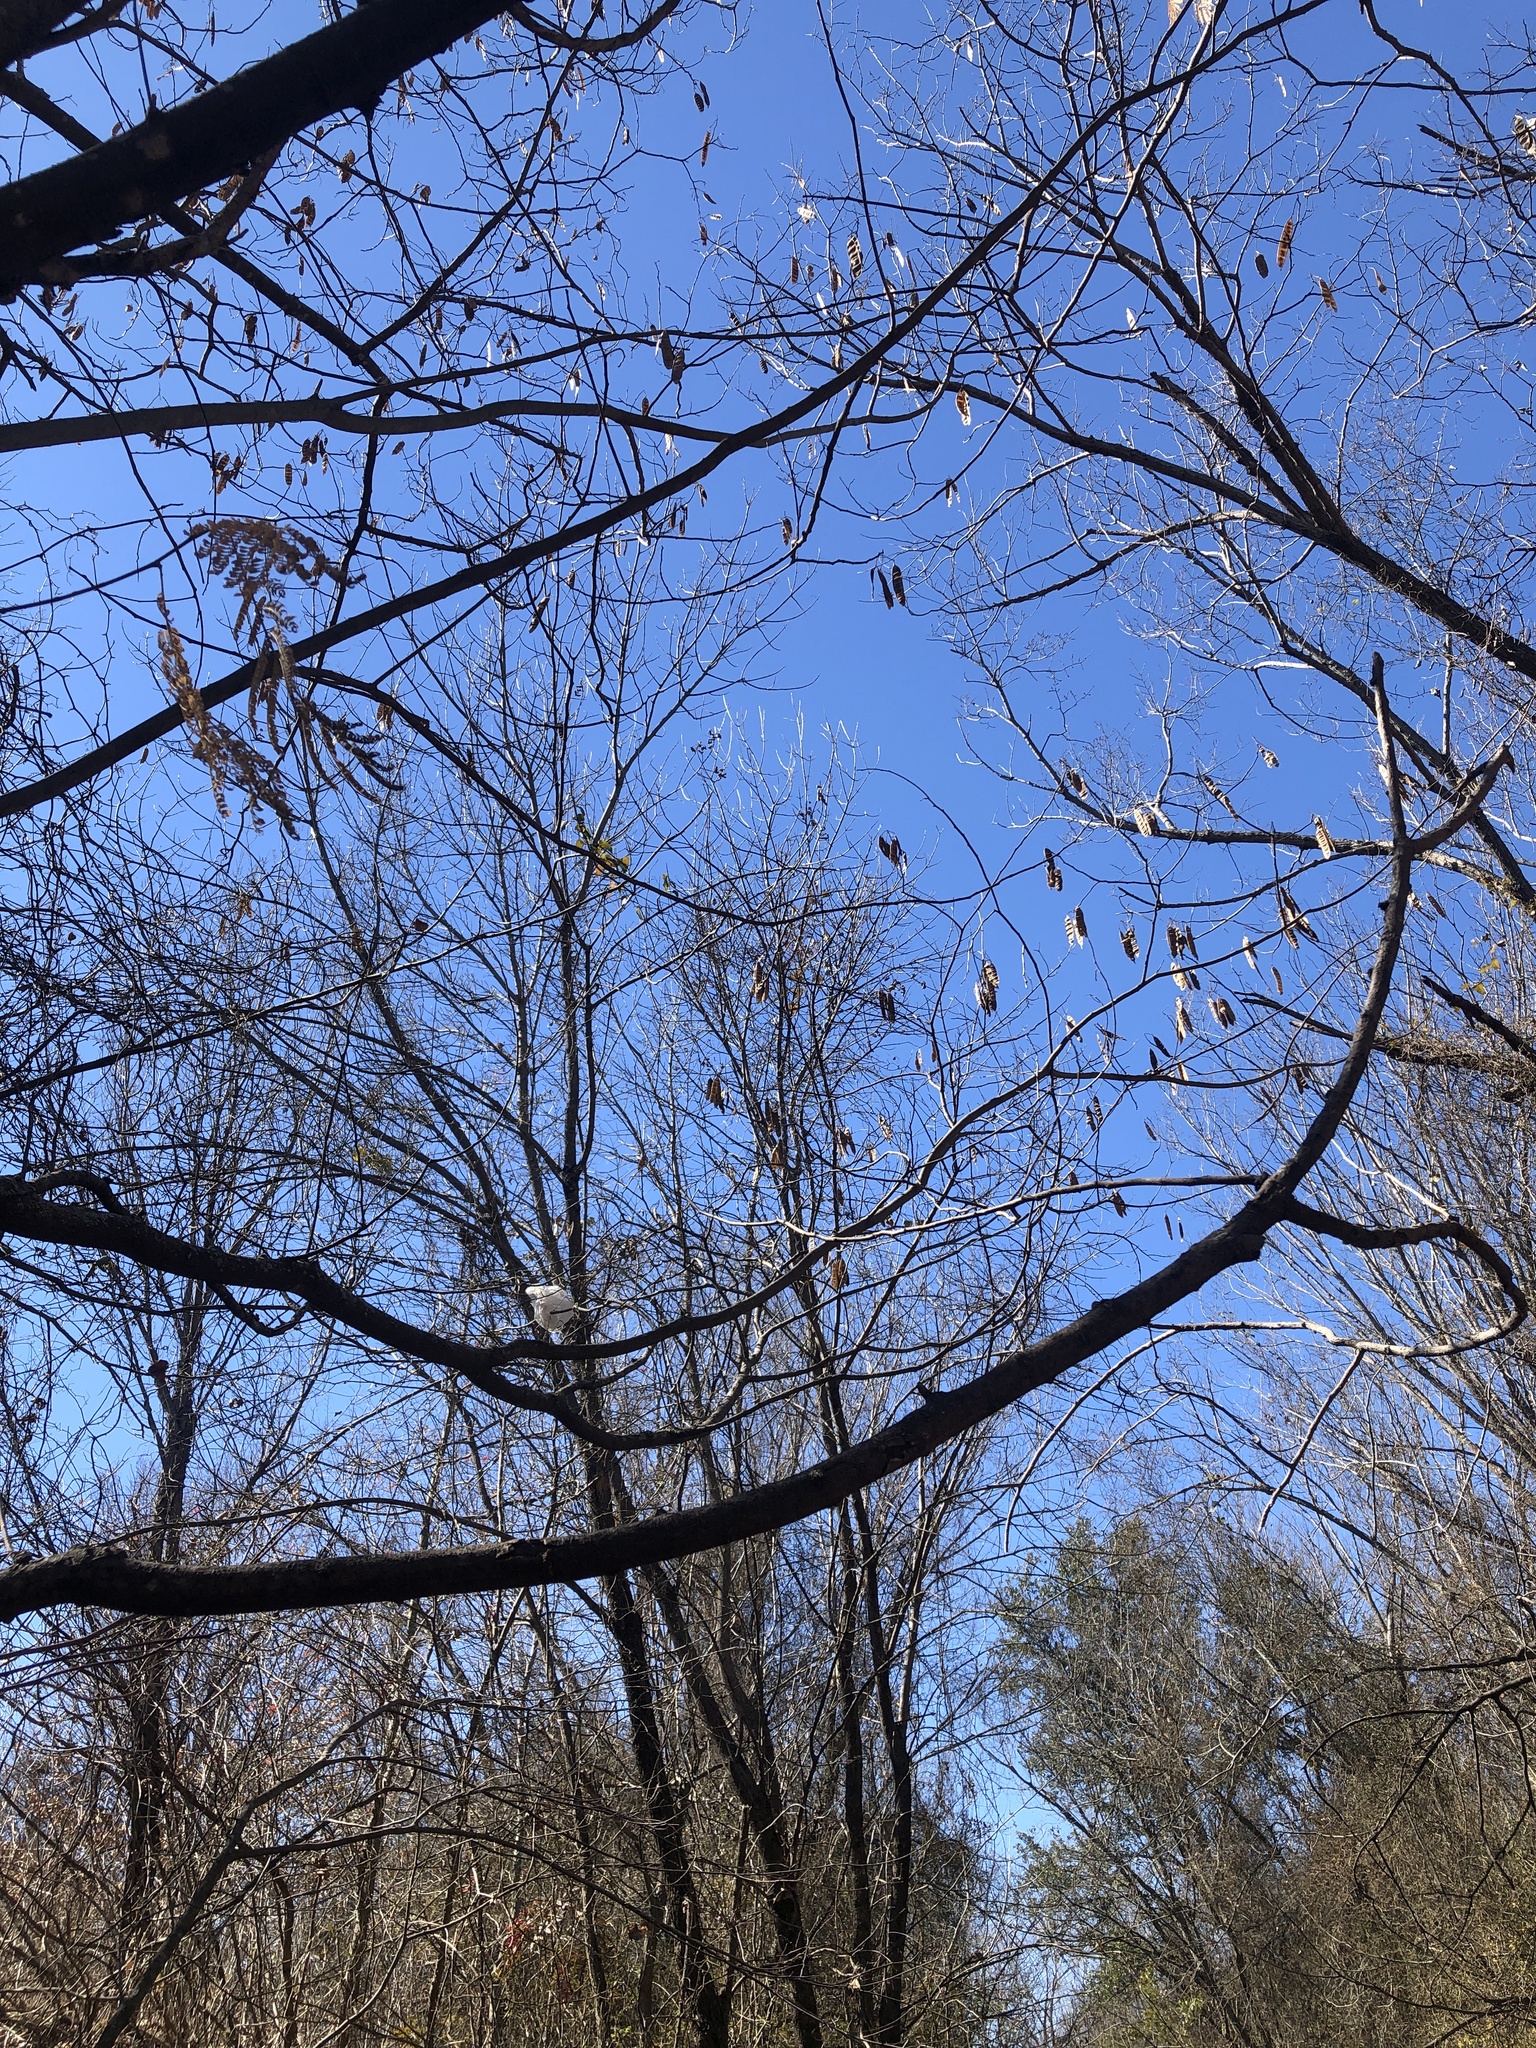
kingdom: Plantae
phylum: Tracheophyta
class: Magnoliopsida
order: Fabales
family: Fabaceae
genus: Albizia
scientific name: Albizia julibrissin
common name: Silktree
